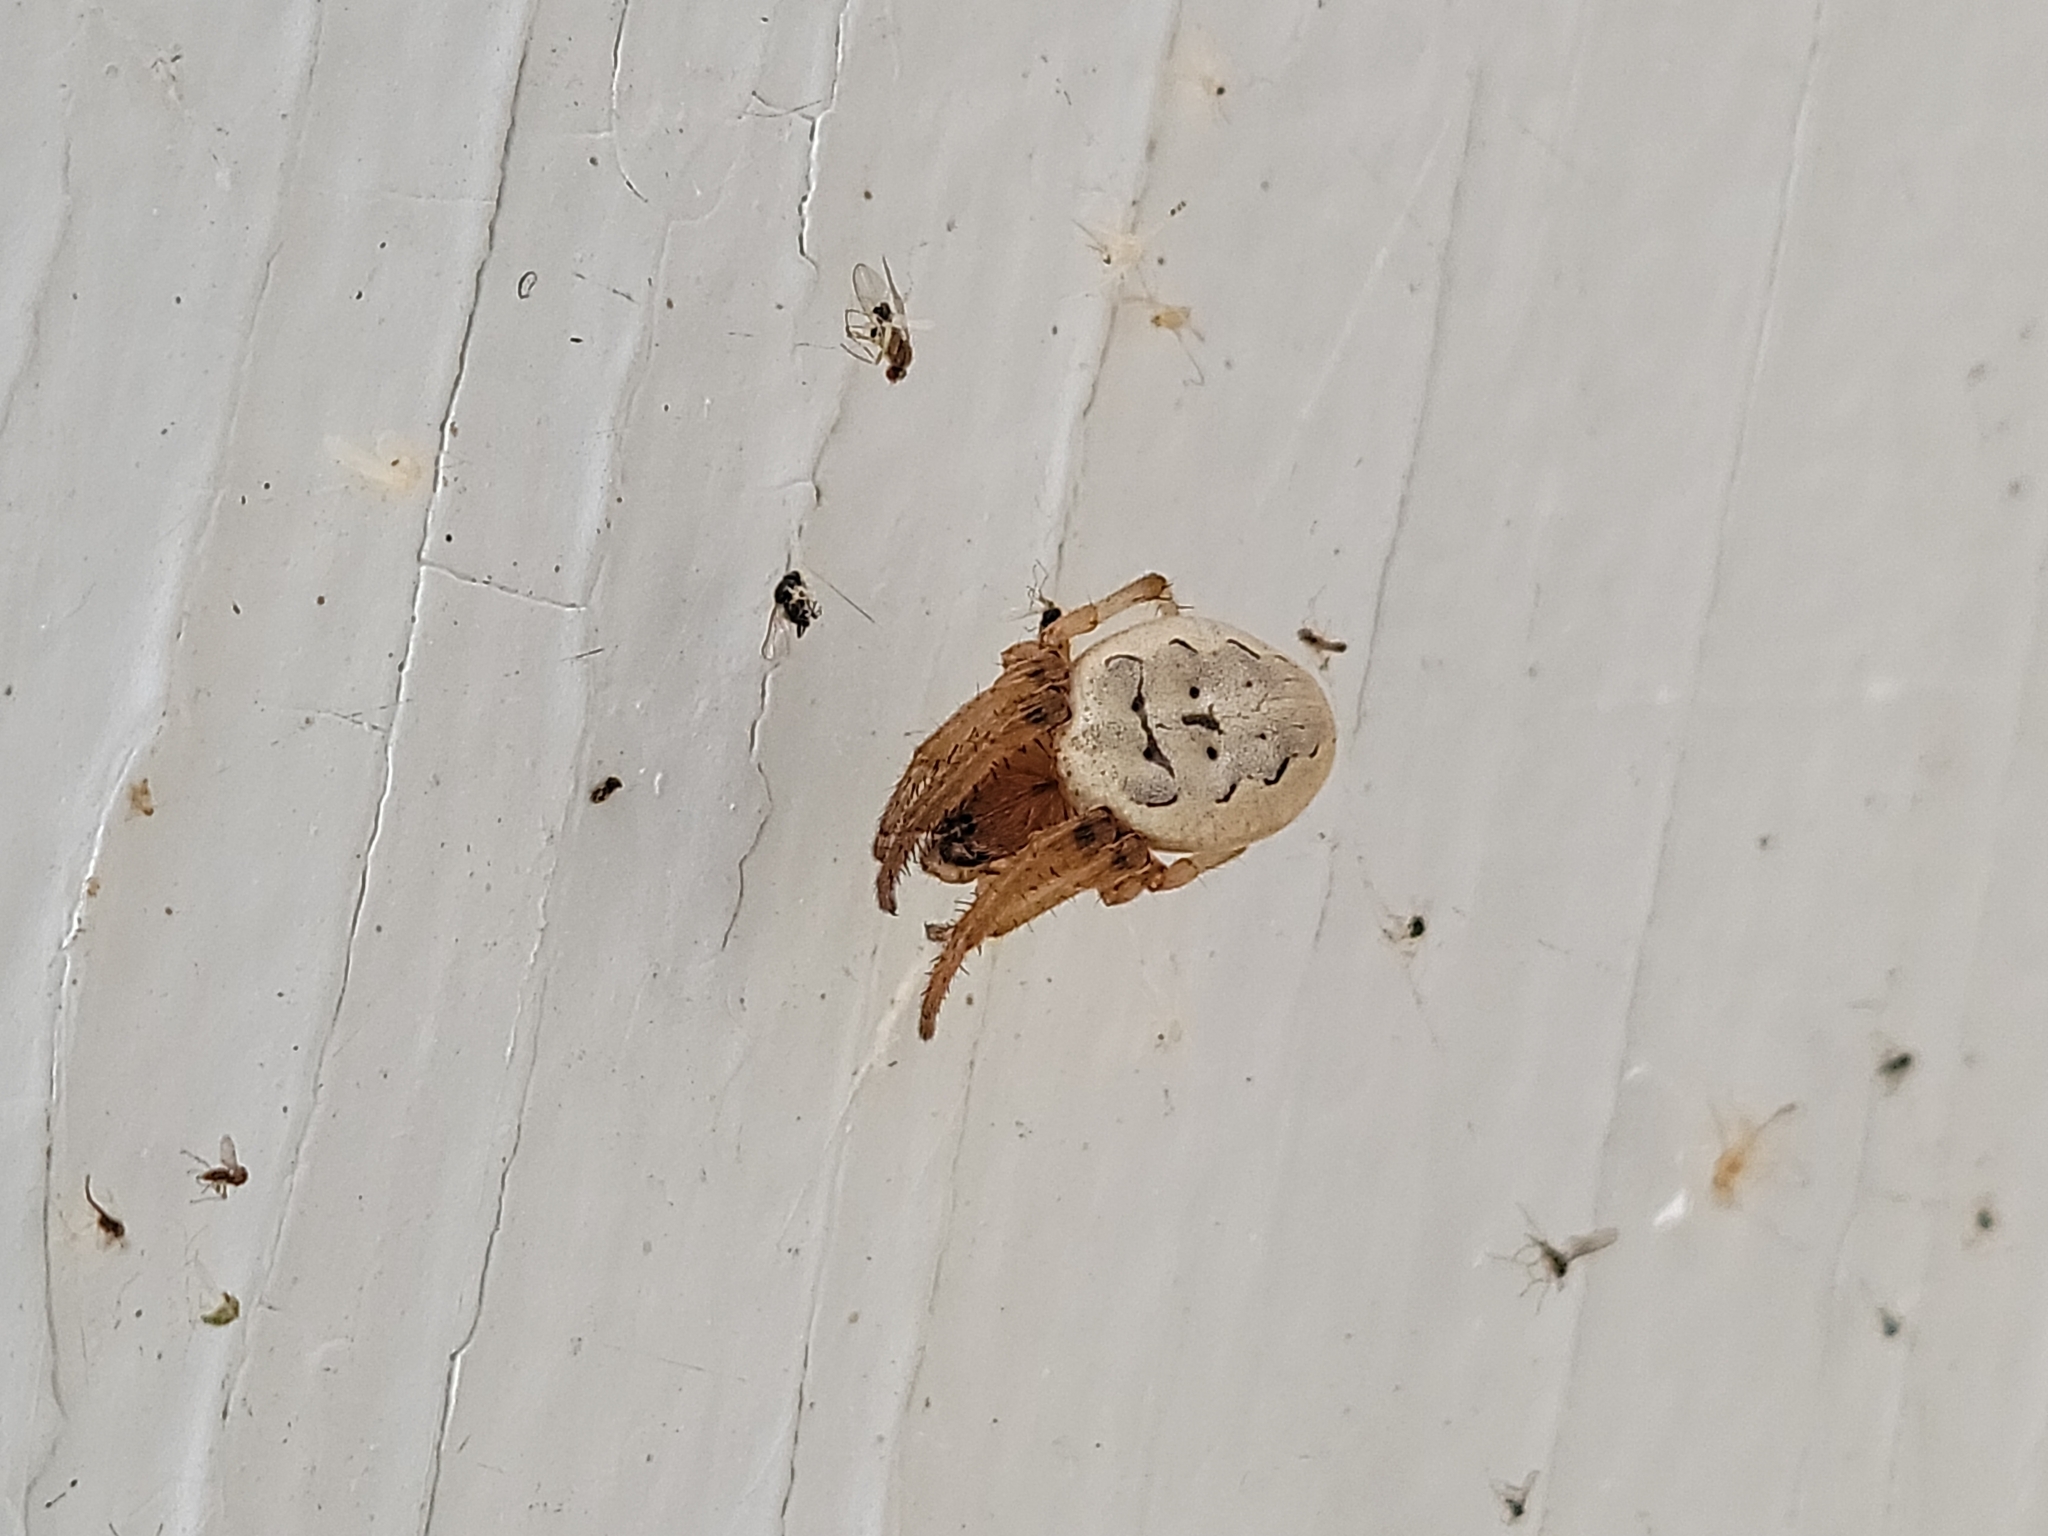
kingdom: Animalia
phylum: Arthropoda
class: Arachnida
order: Araneae
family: Araneidae
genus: Larinioides
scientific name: Larinioides cornutus
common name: Furrow orbweaver
